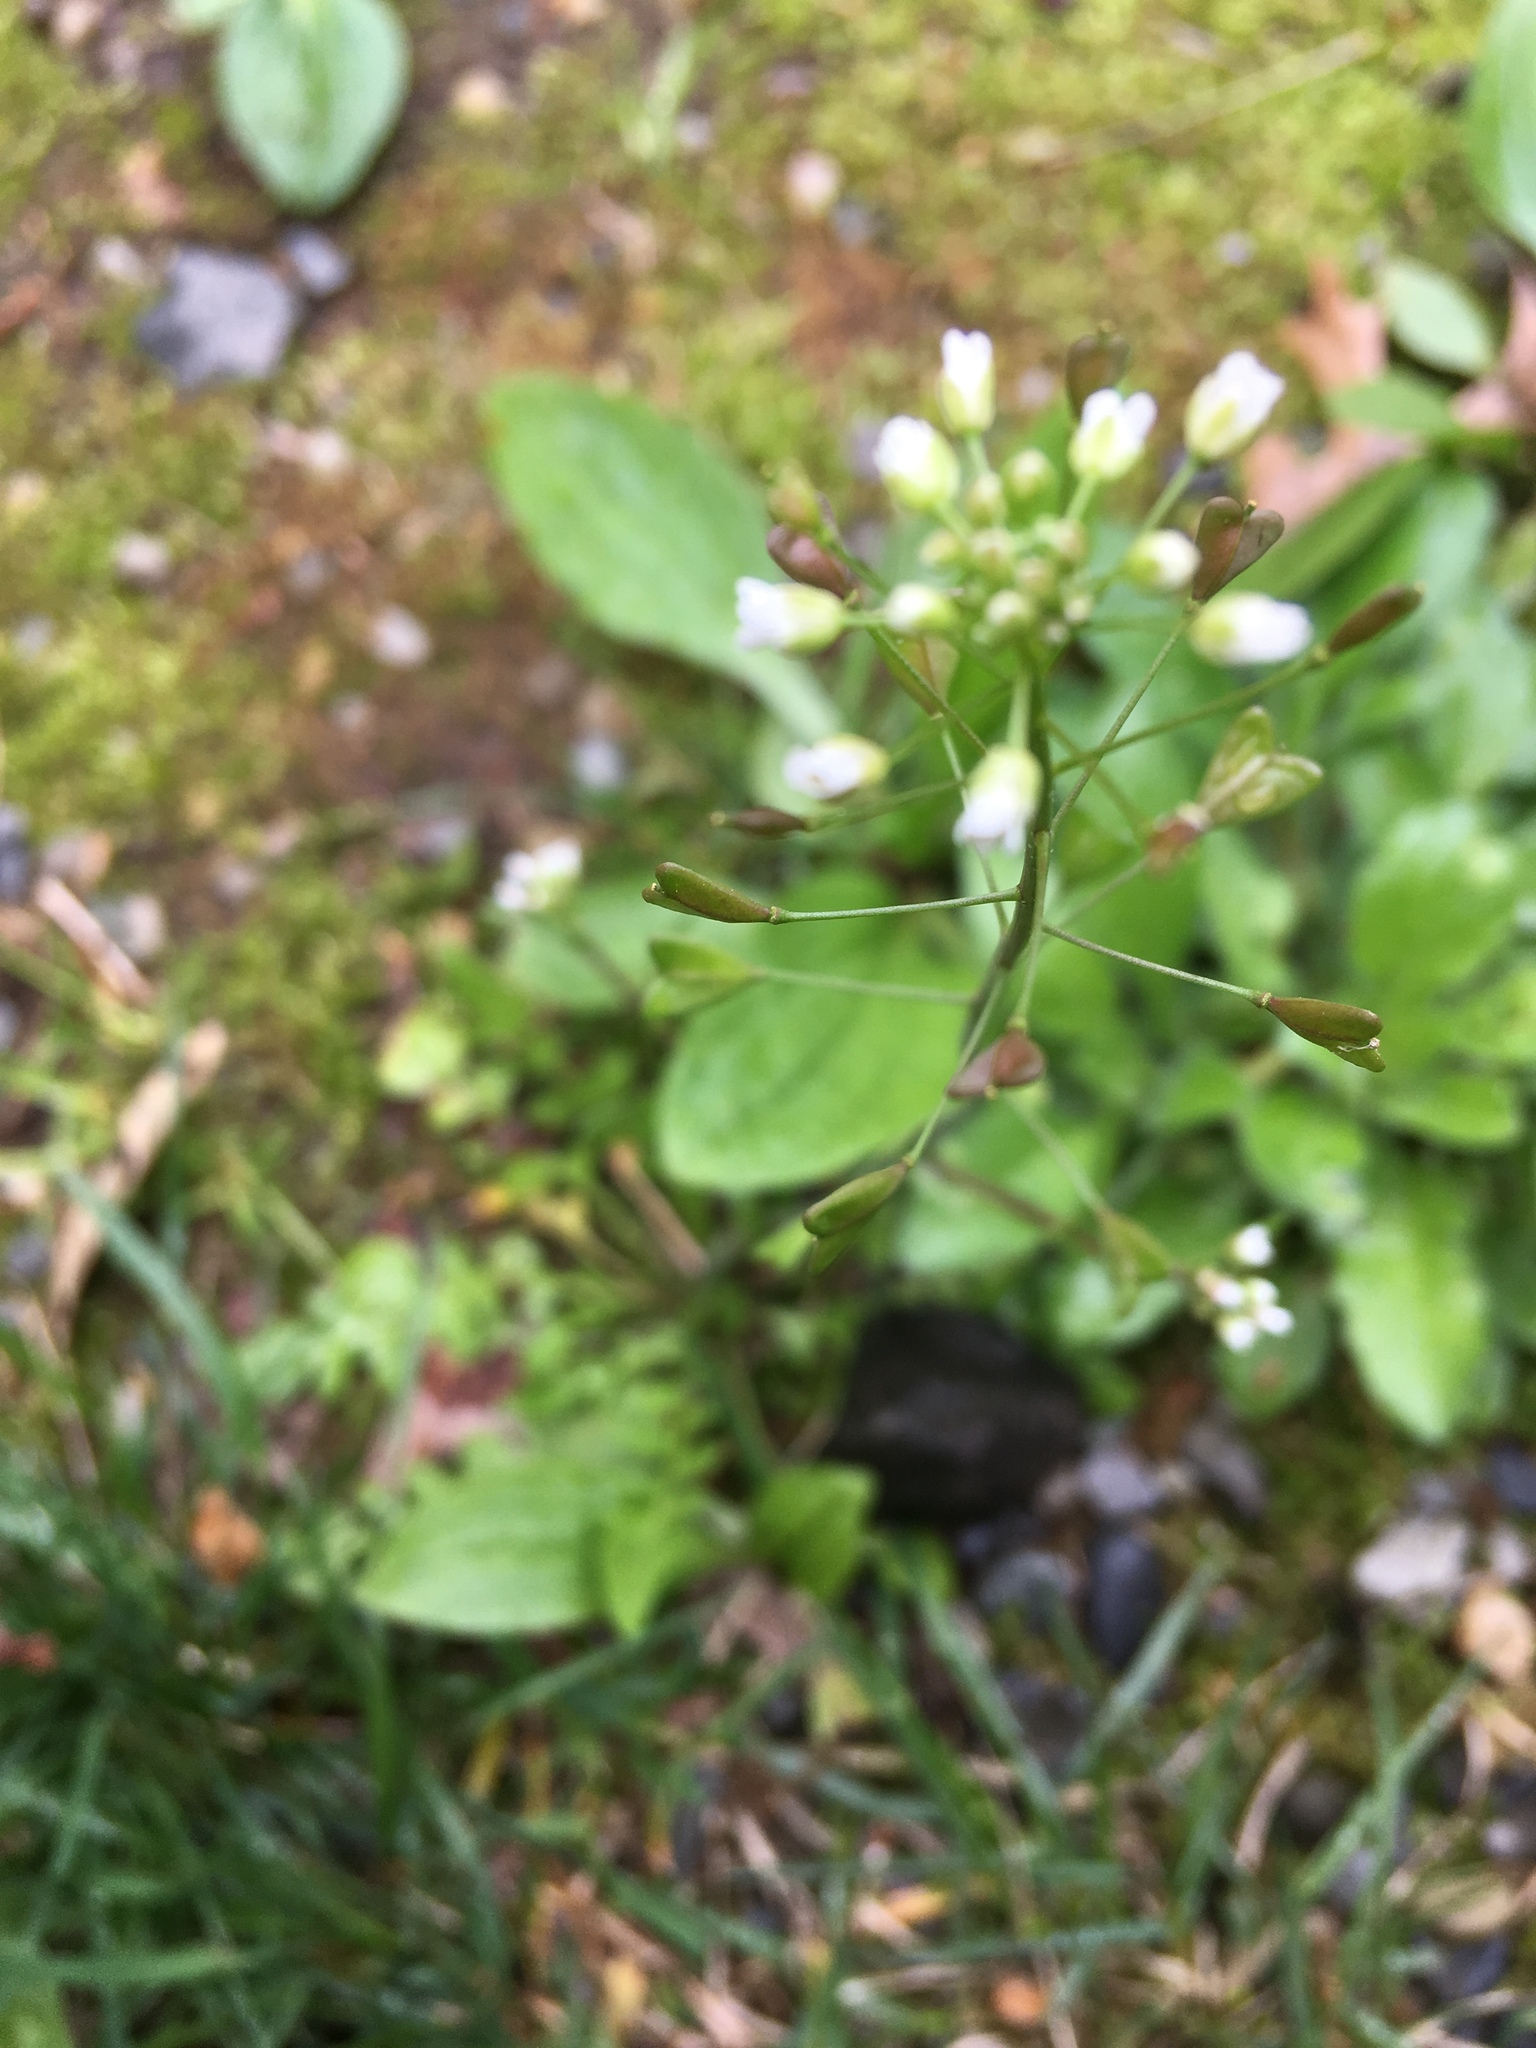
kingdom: Plantae
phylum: Tracheophyta
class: Magnoliopsida
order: Brassicales
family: Brassicaceae
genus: Capsella
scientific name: Capsella bursa-pastoris
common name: Shepherd's purse
